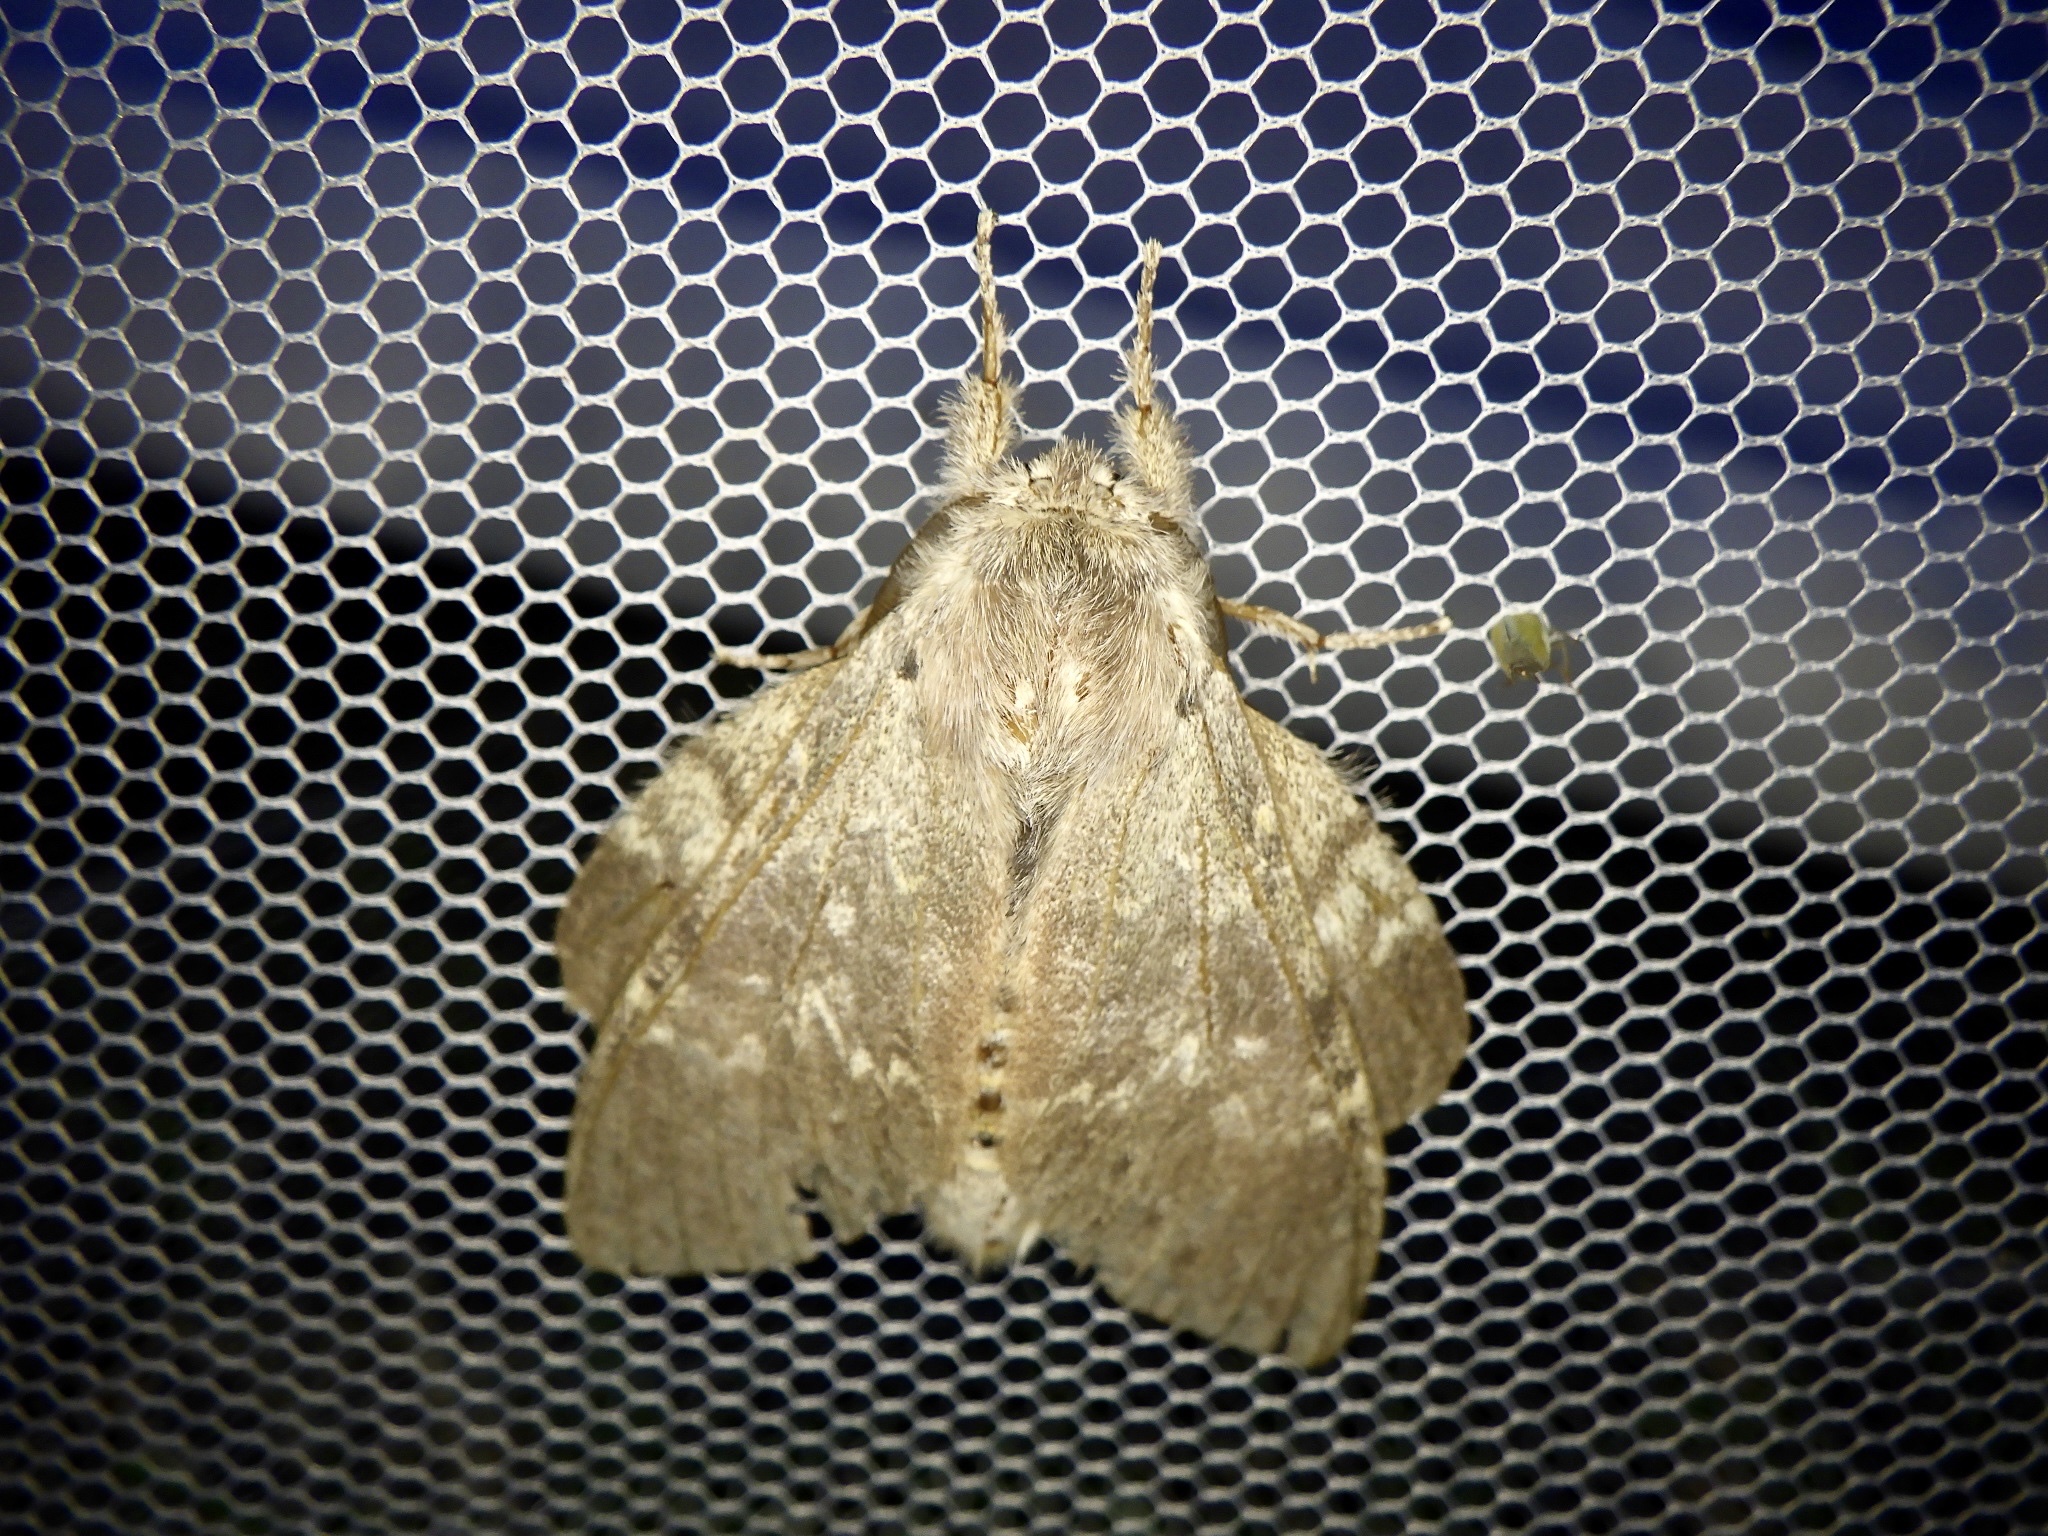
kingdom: Animalia
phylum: Arthropoda
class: Insecta
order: Lepidoptera
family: Notodontidae
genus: Stauropus
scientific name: Stauropus fagi
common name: Lobster moth
